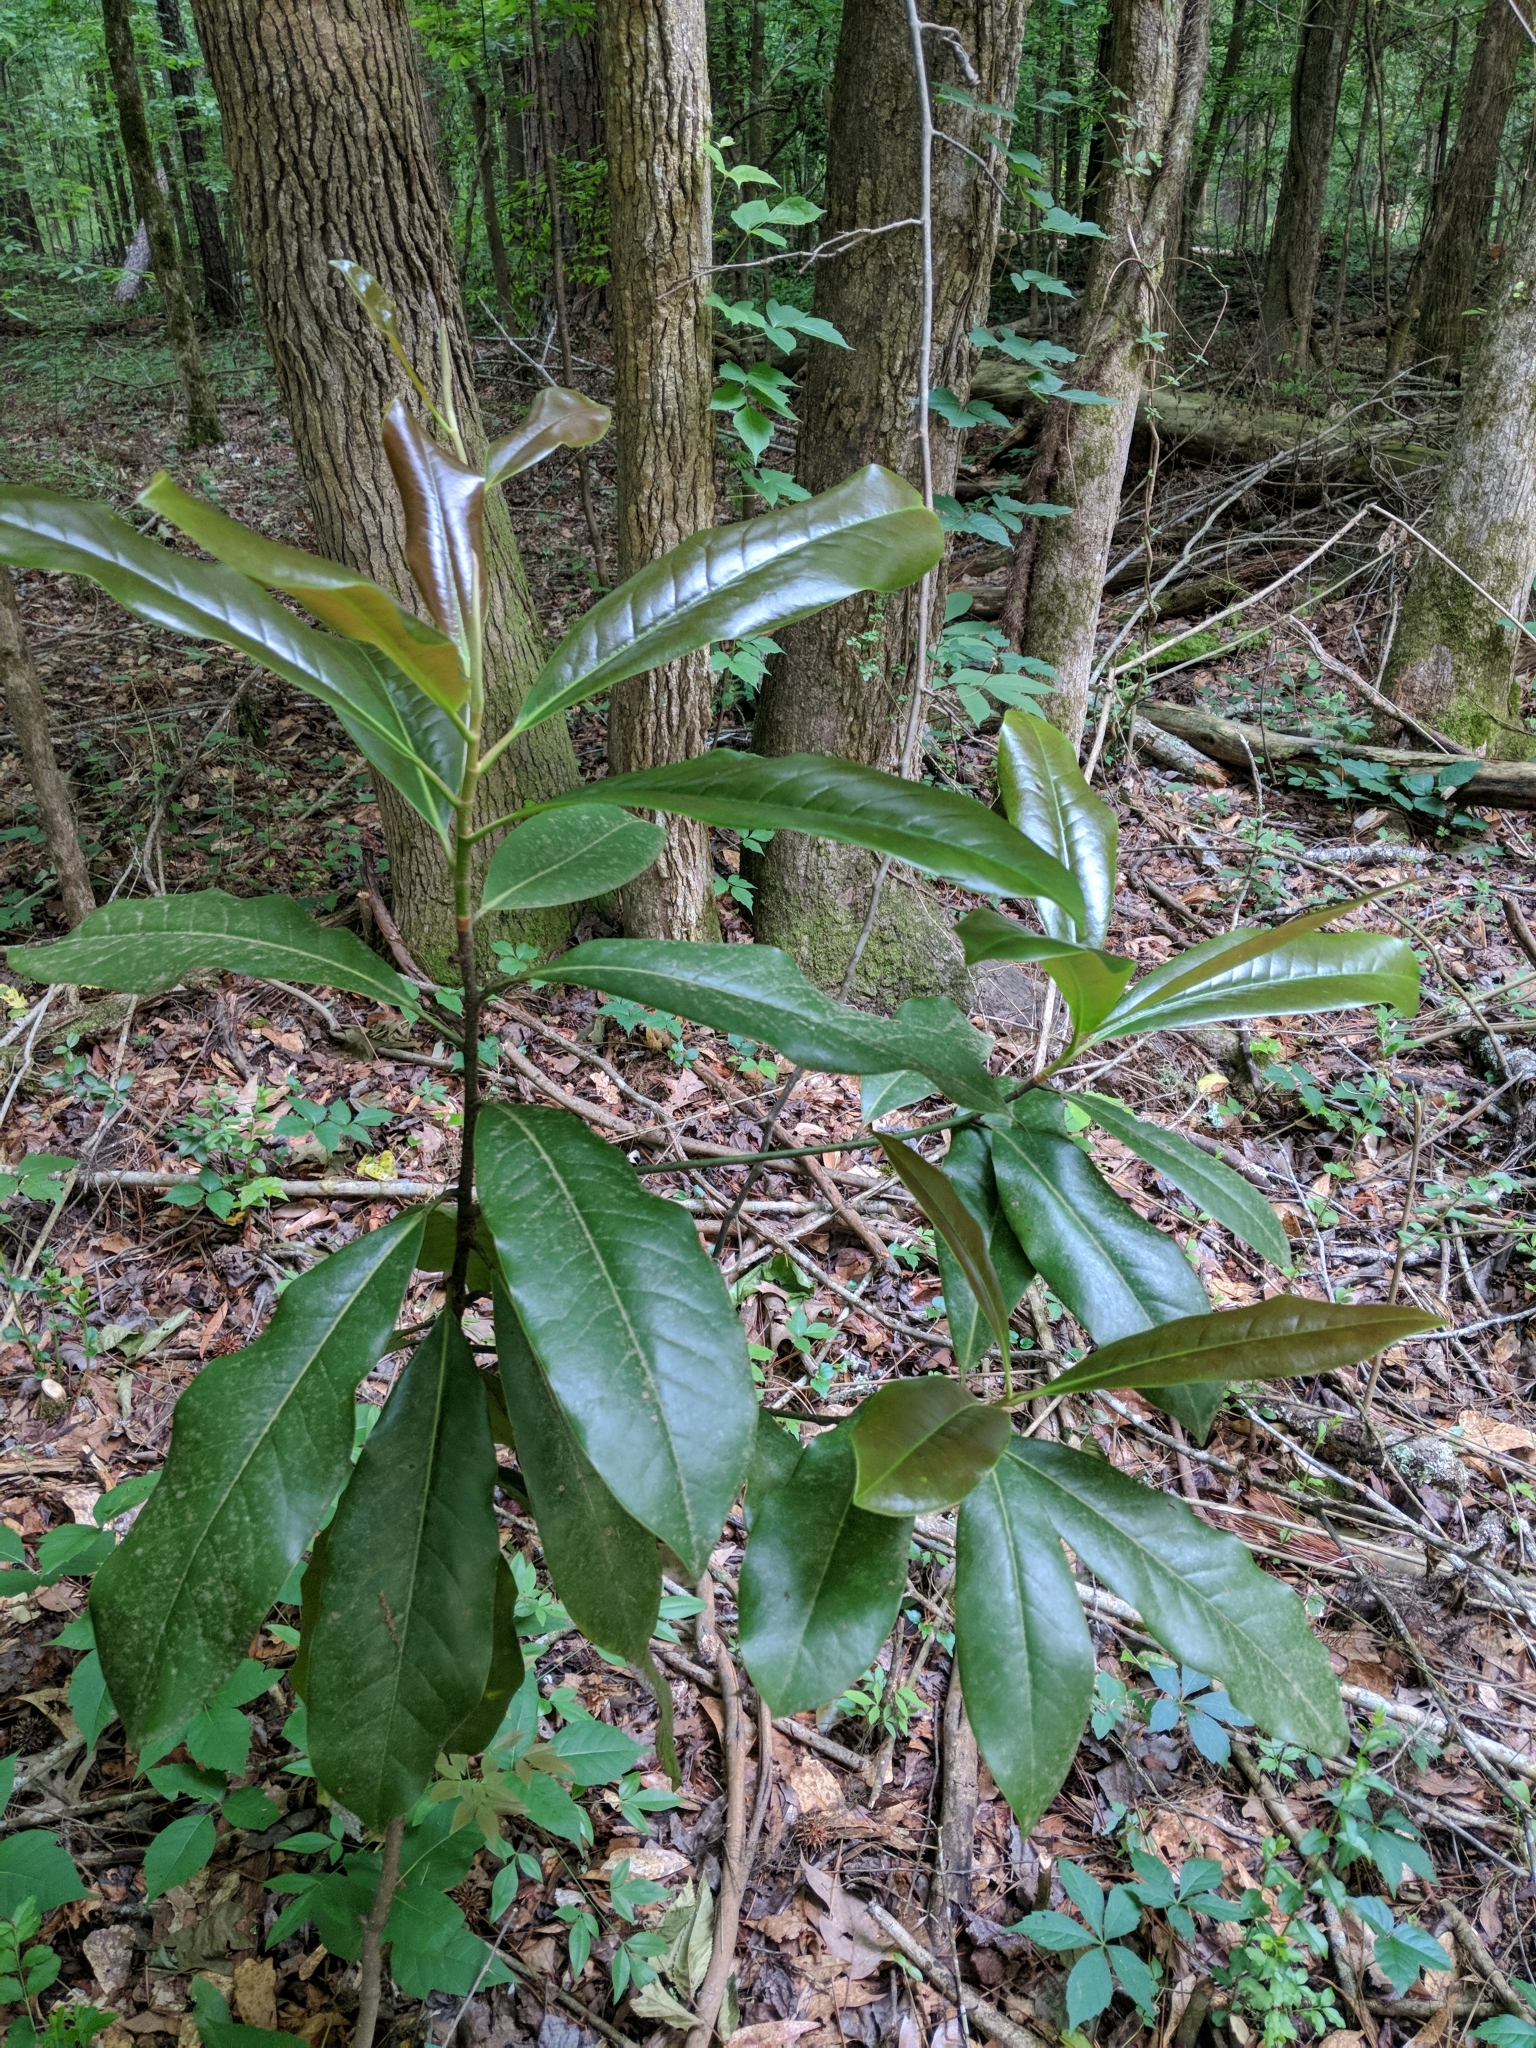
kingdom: Plantae
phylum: Tracheophyta
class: Magnoliopsida
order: Magnoliales
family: Magnoliaceae
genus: Magnolia
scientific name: Magnolia grandiflora
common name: Southern magnolia
